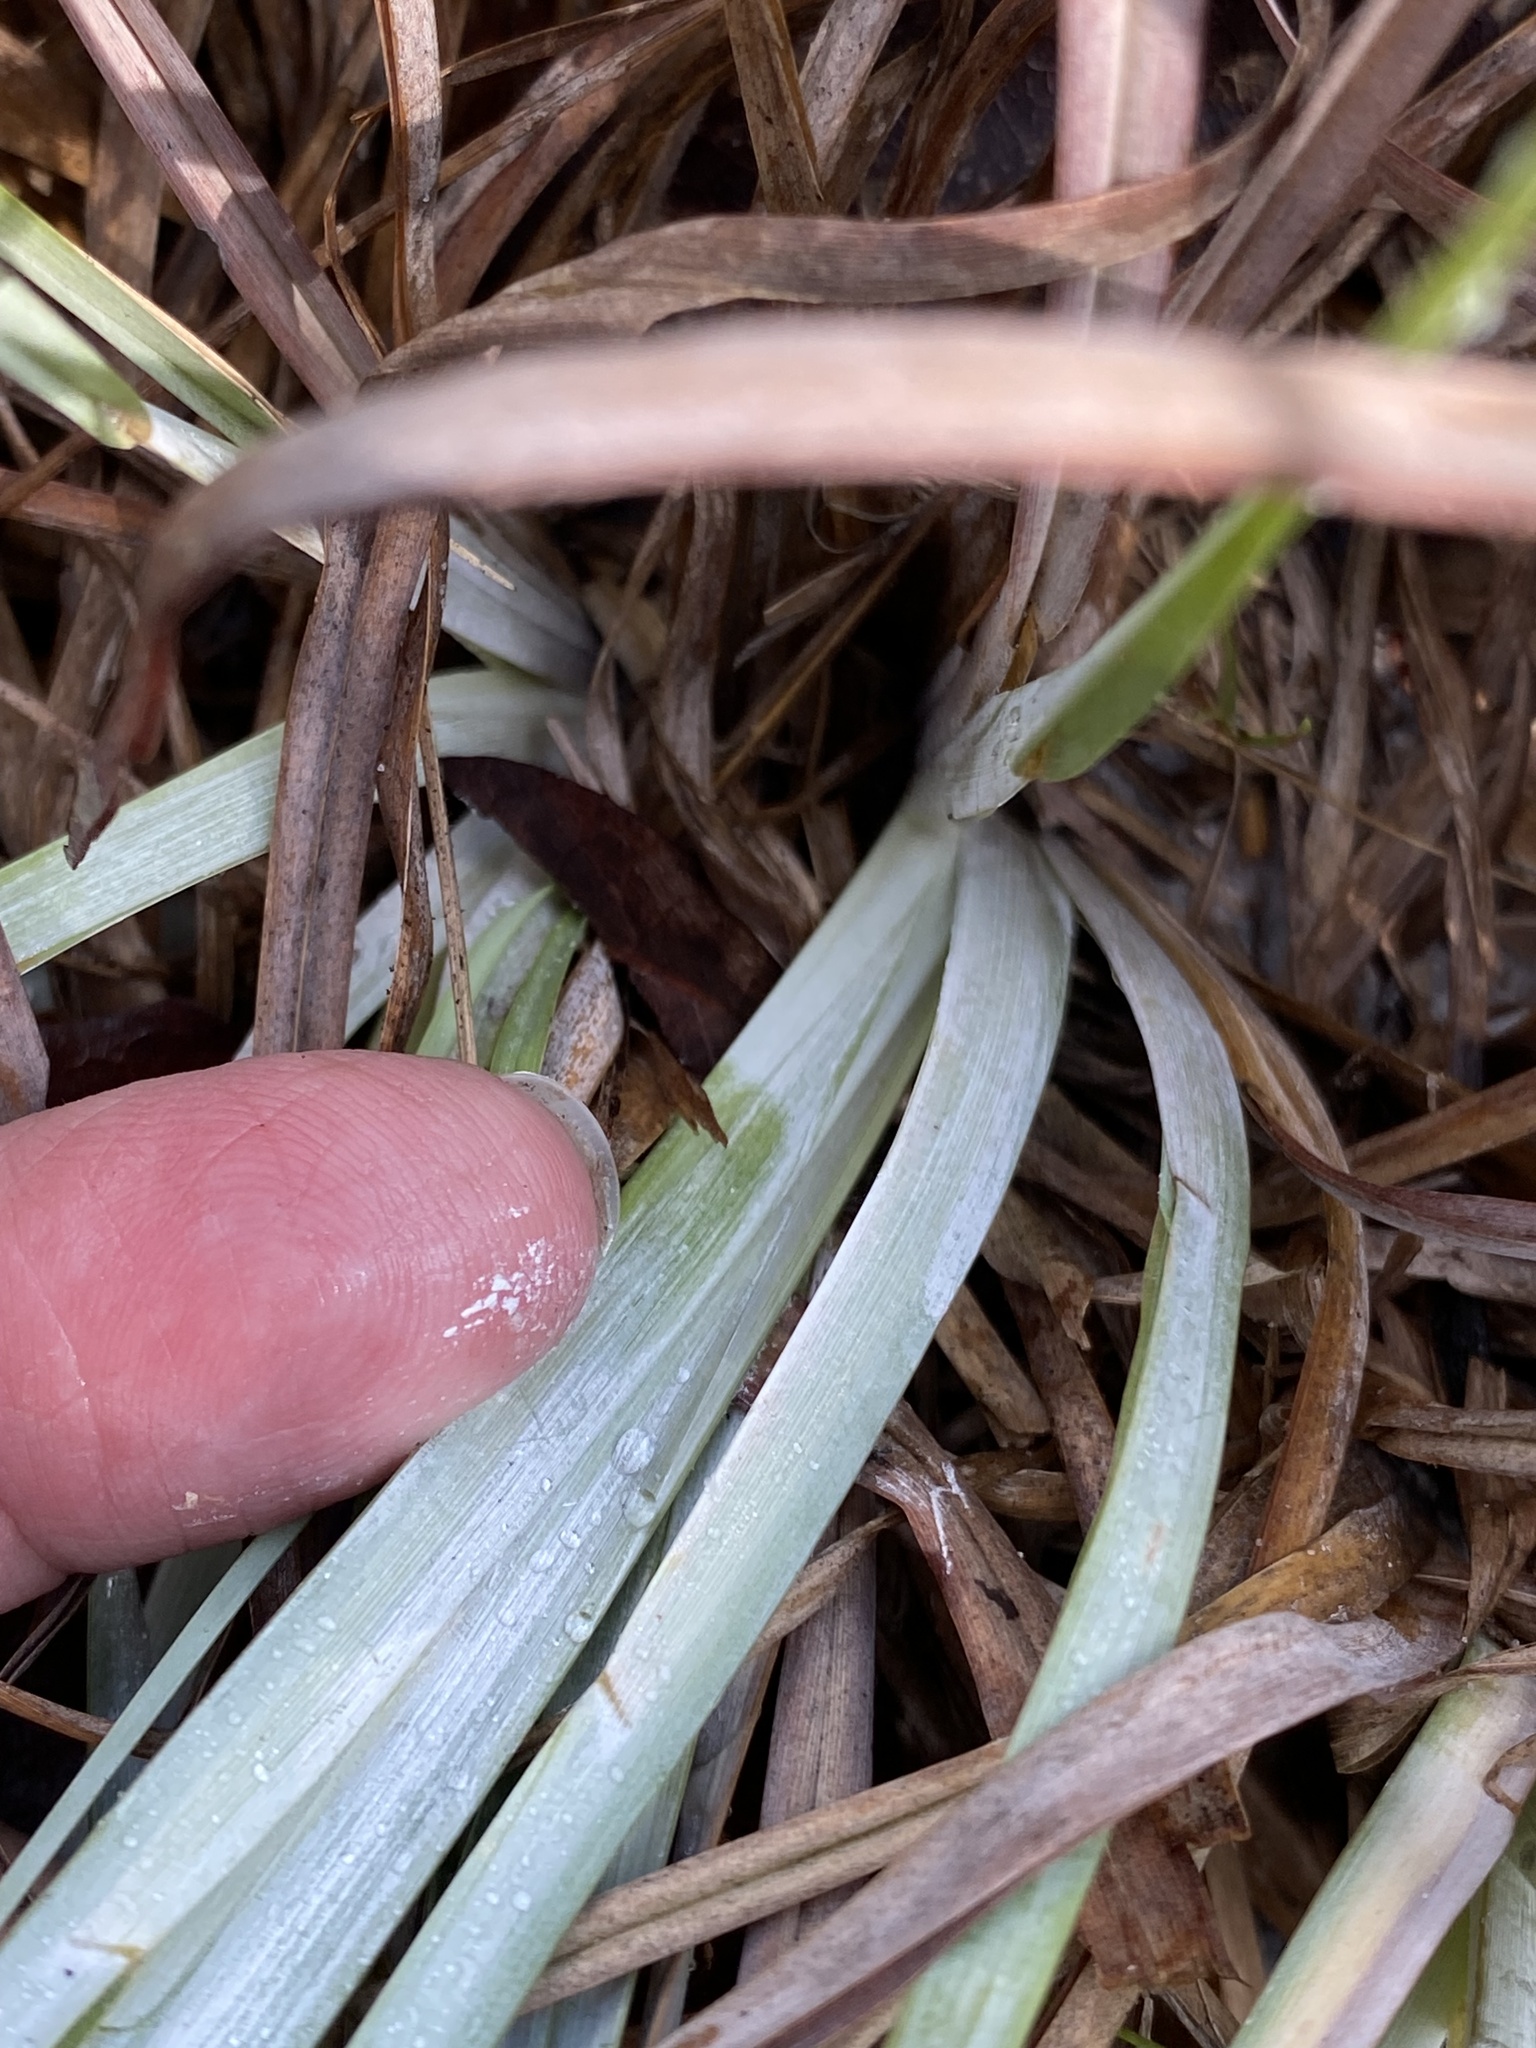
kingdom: Plantae
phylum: Tracheophyta
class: Liliopsida
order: Poales
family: Poaceae
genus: Andropogon
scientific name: Andropogon capillipes
